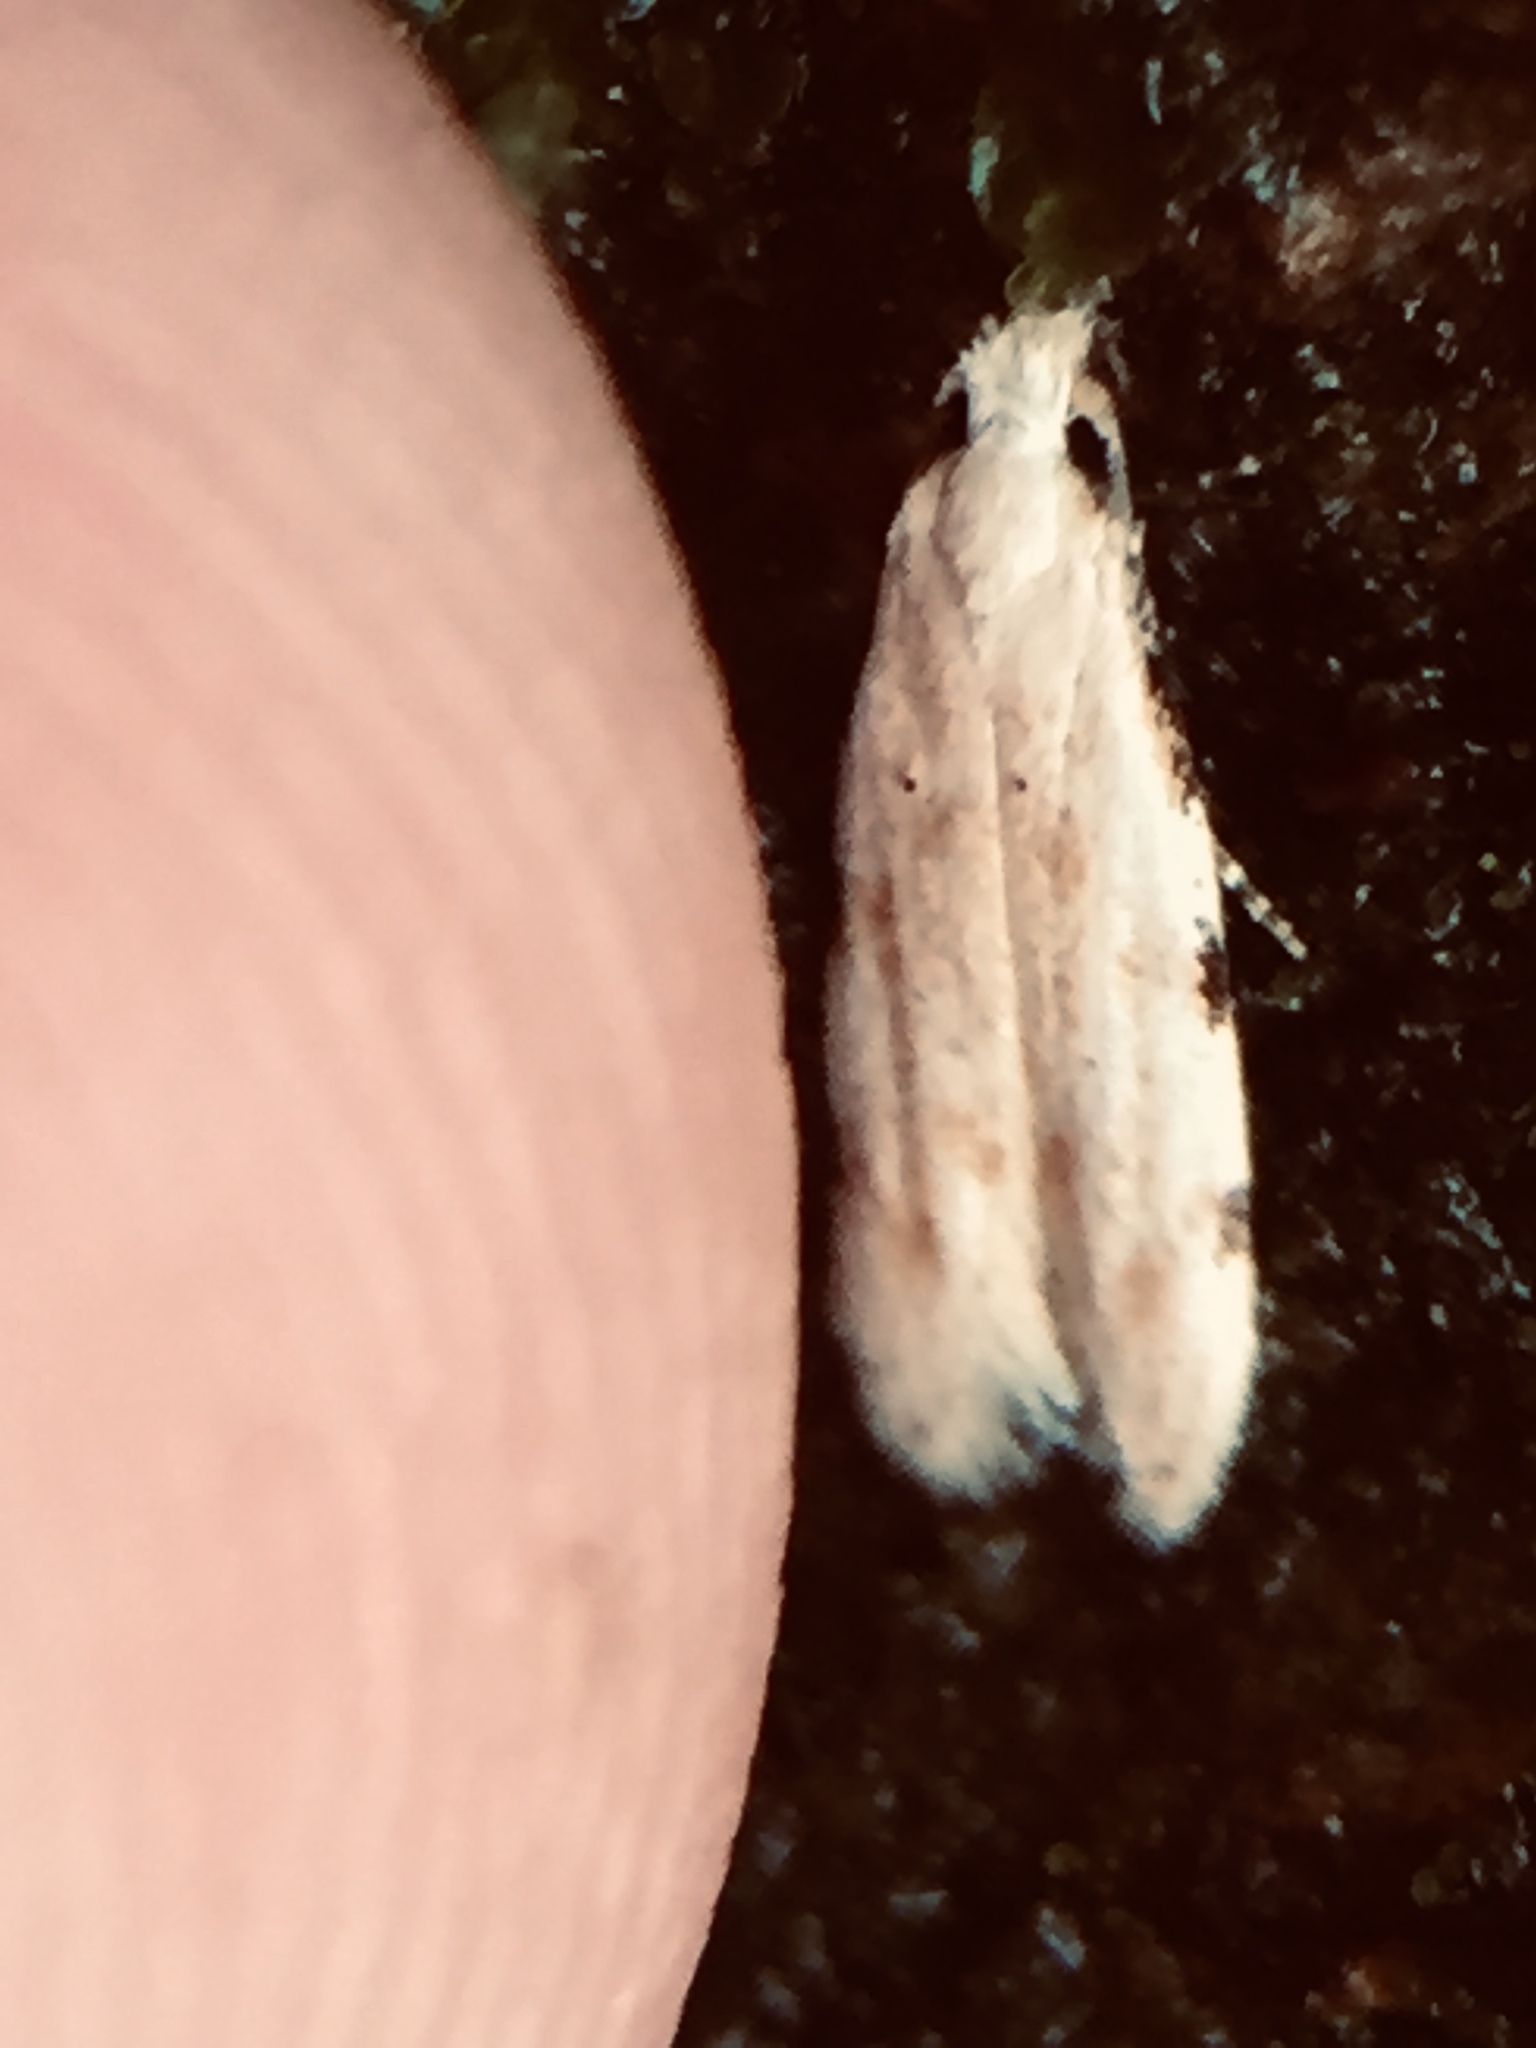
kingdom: Animalia
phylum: Arthropoda
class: Insecta
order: Lepidoptera
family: Tineidae
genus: Endophthora
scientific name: Endophthora omogramma
